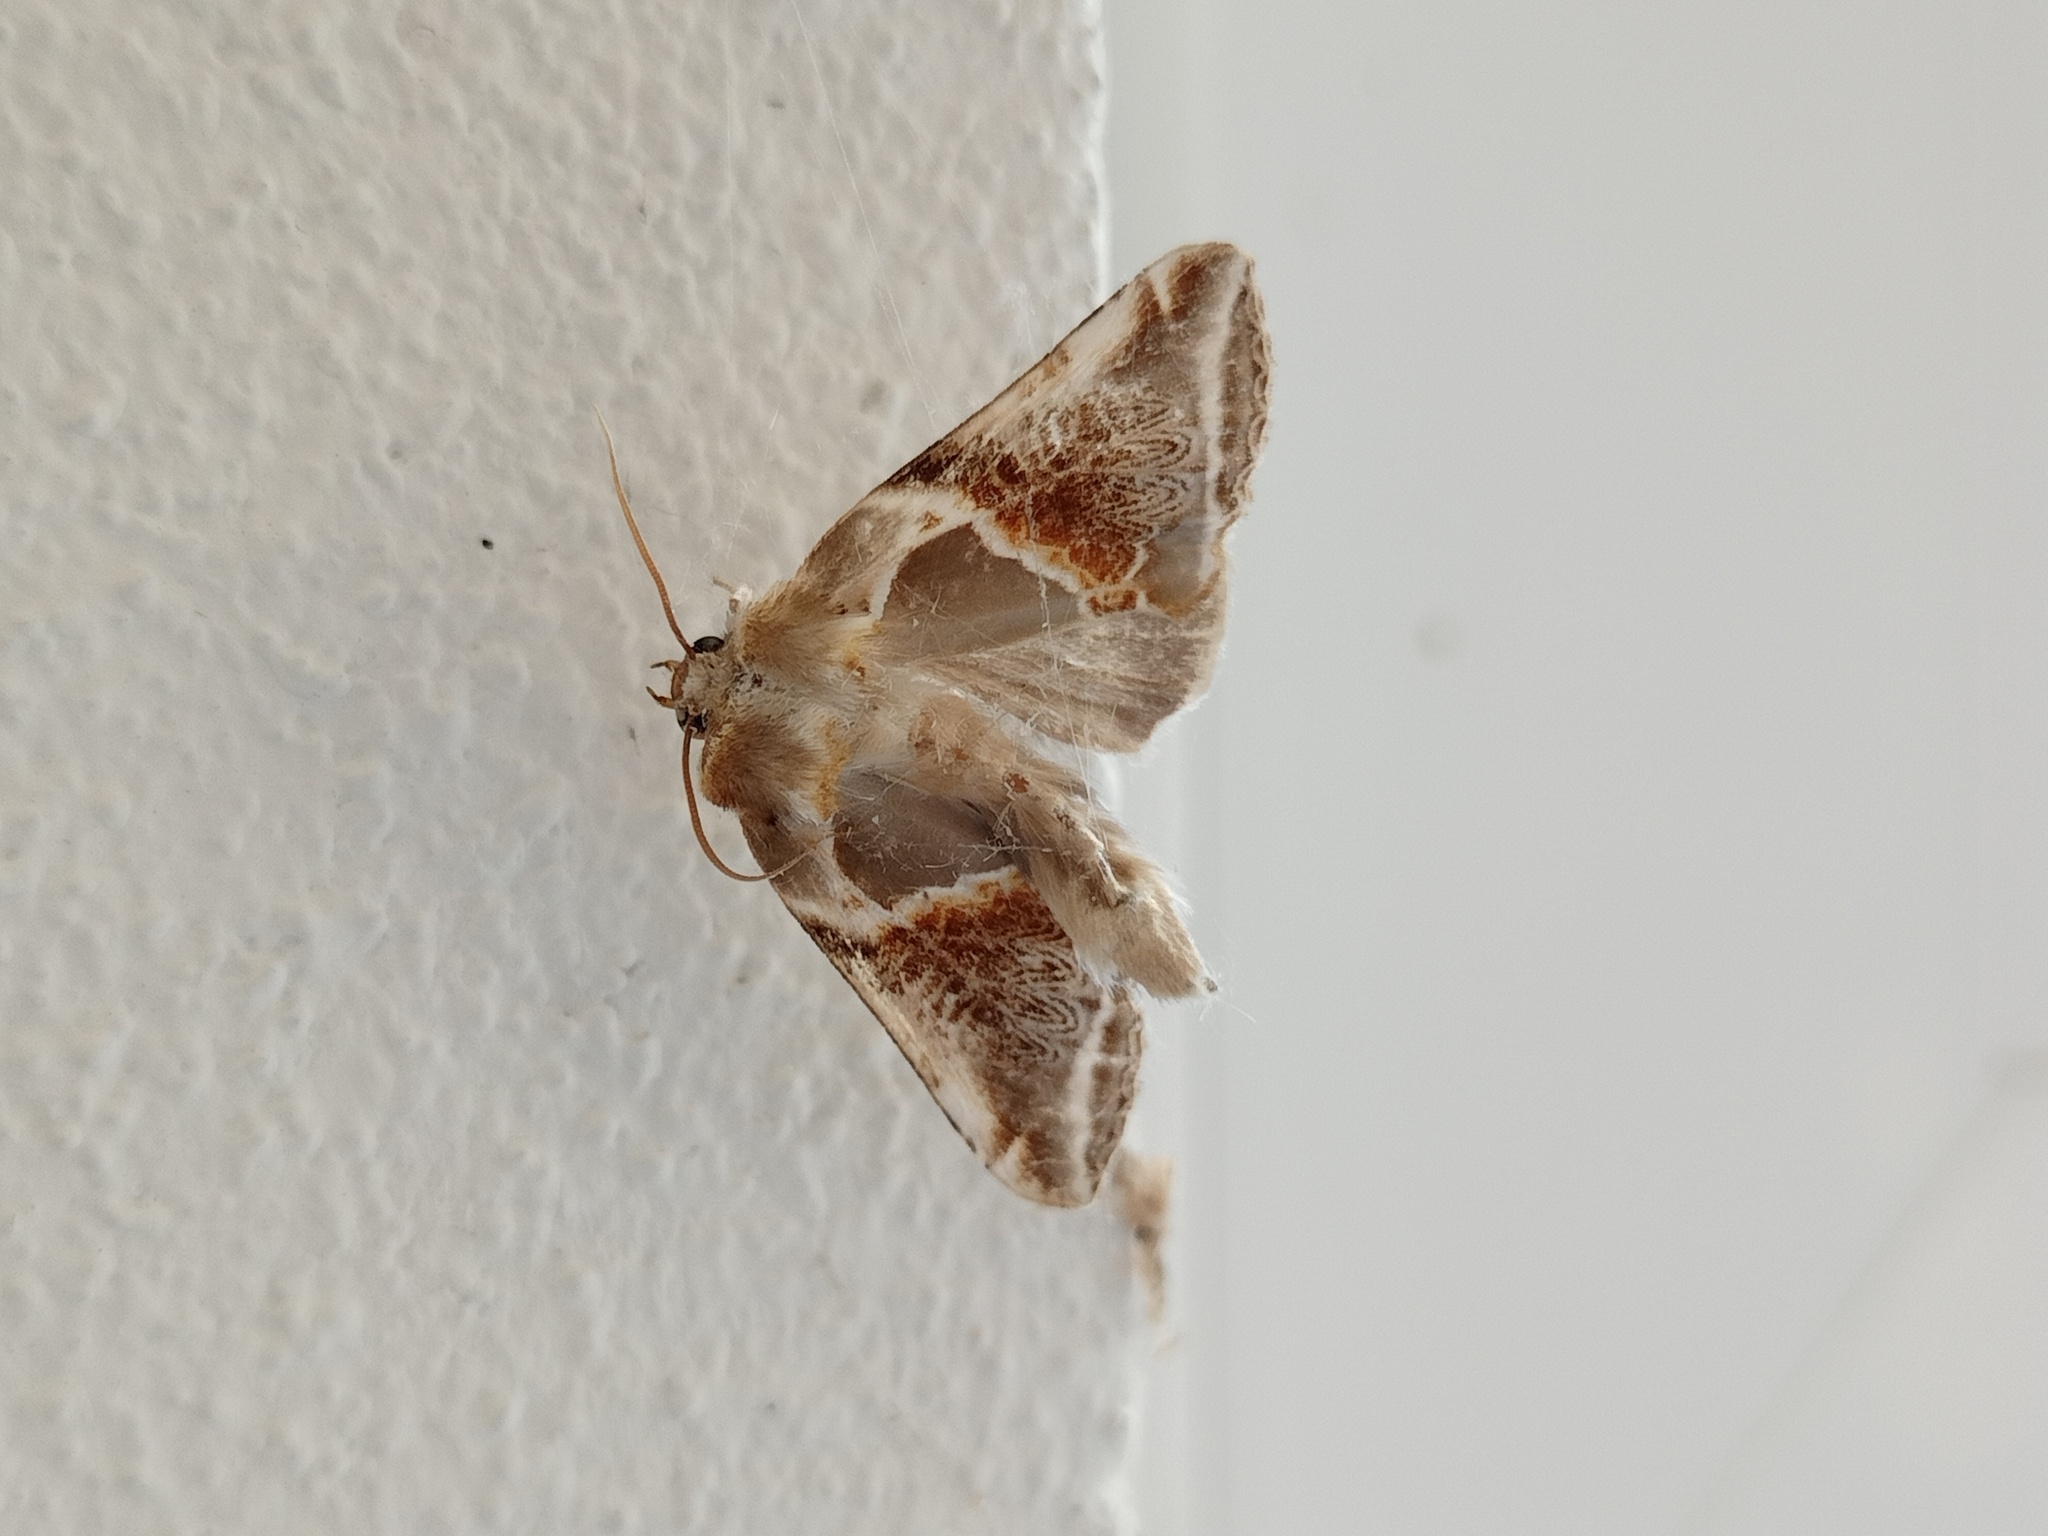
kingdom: Animalia
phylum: Arthropoda
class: Insecta
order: Lepidoptera
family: Drepanidae
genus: Habrosyne
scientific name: Habrosyne pyritoides
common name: Buff arches
